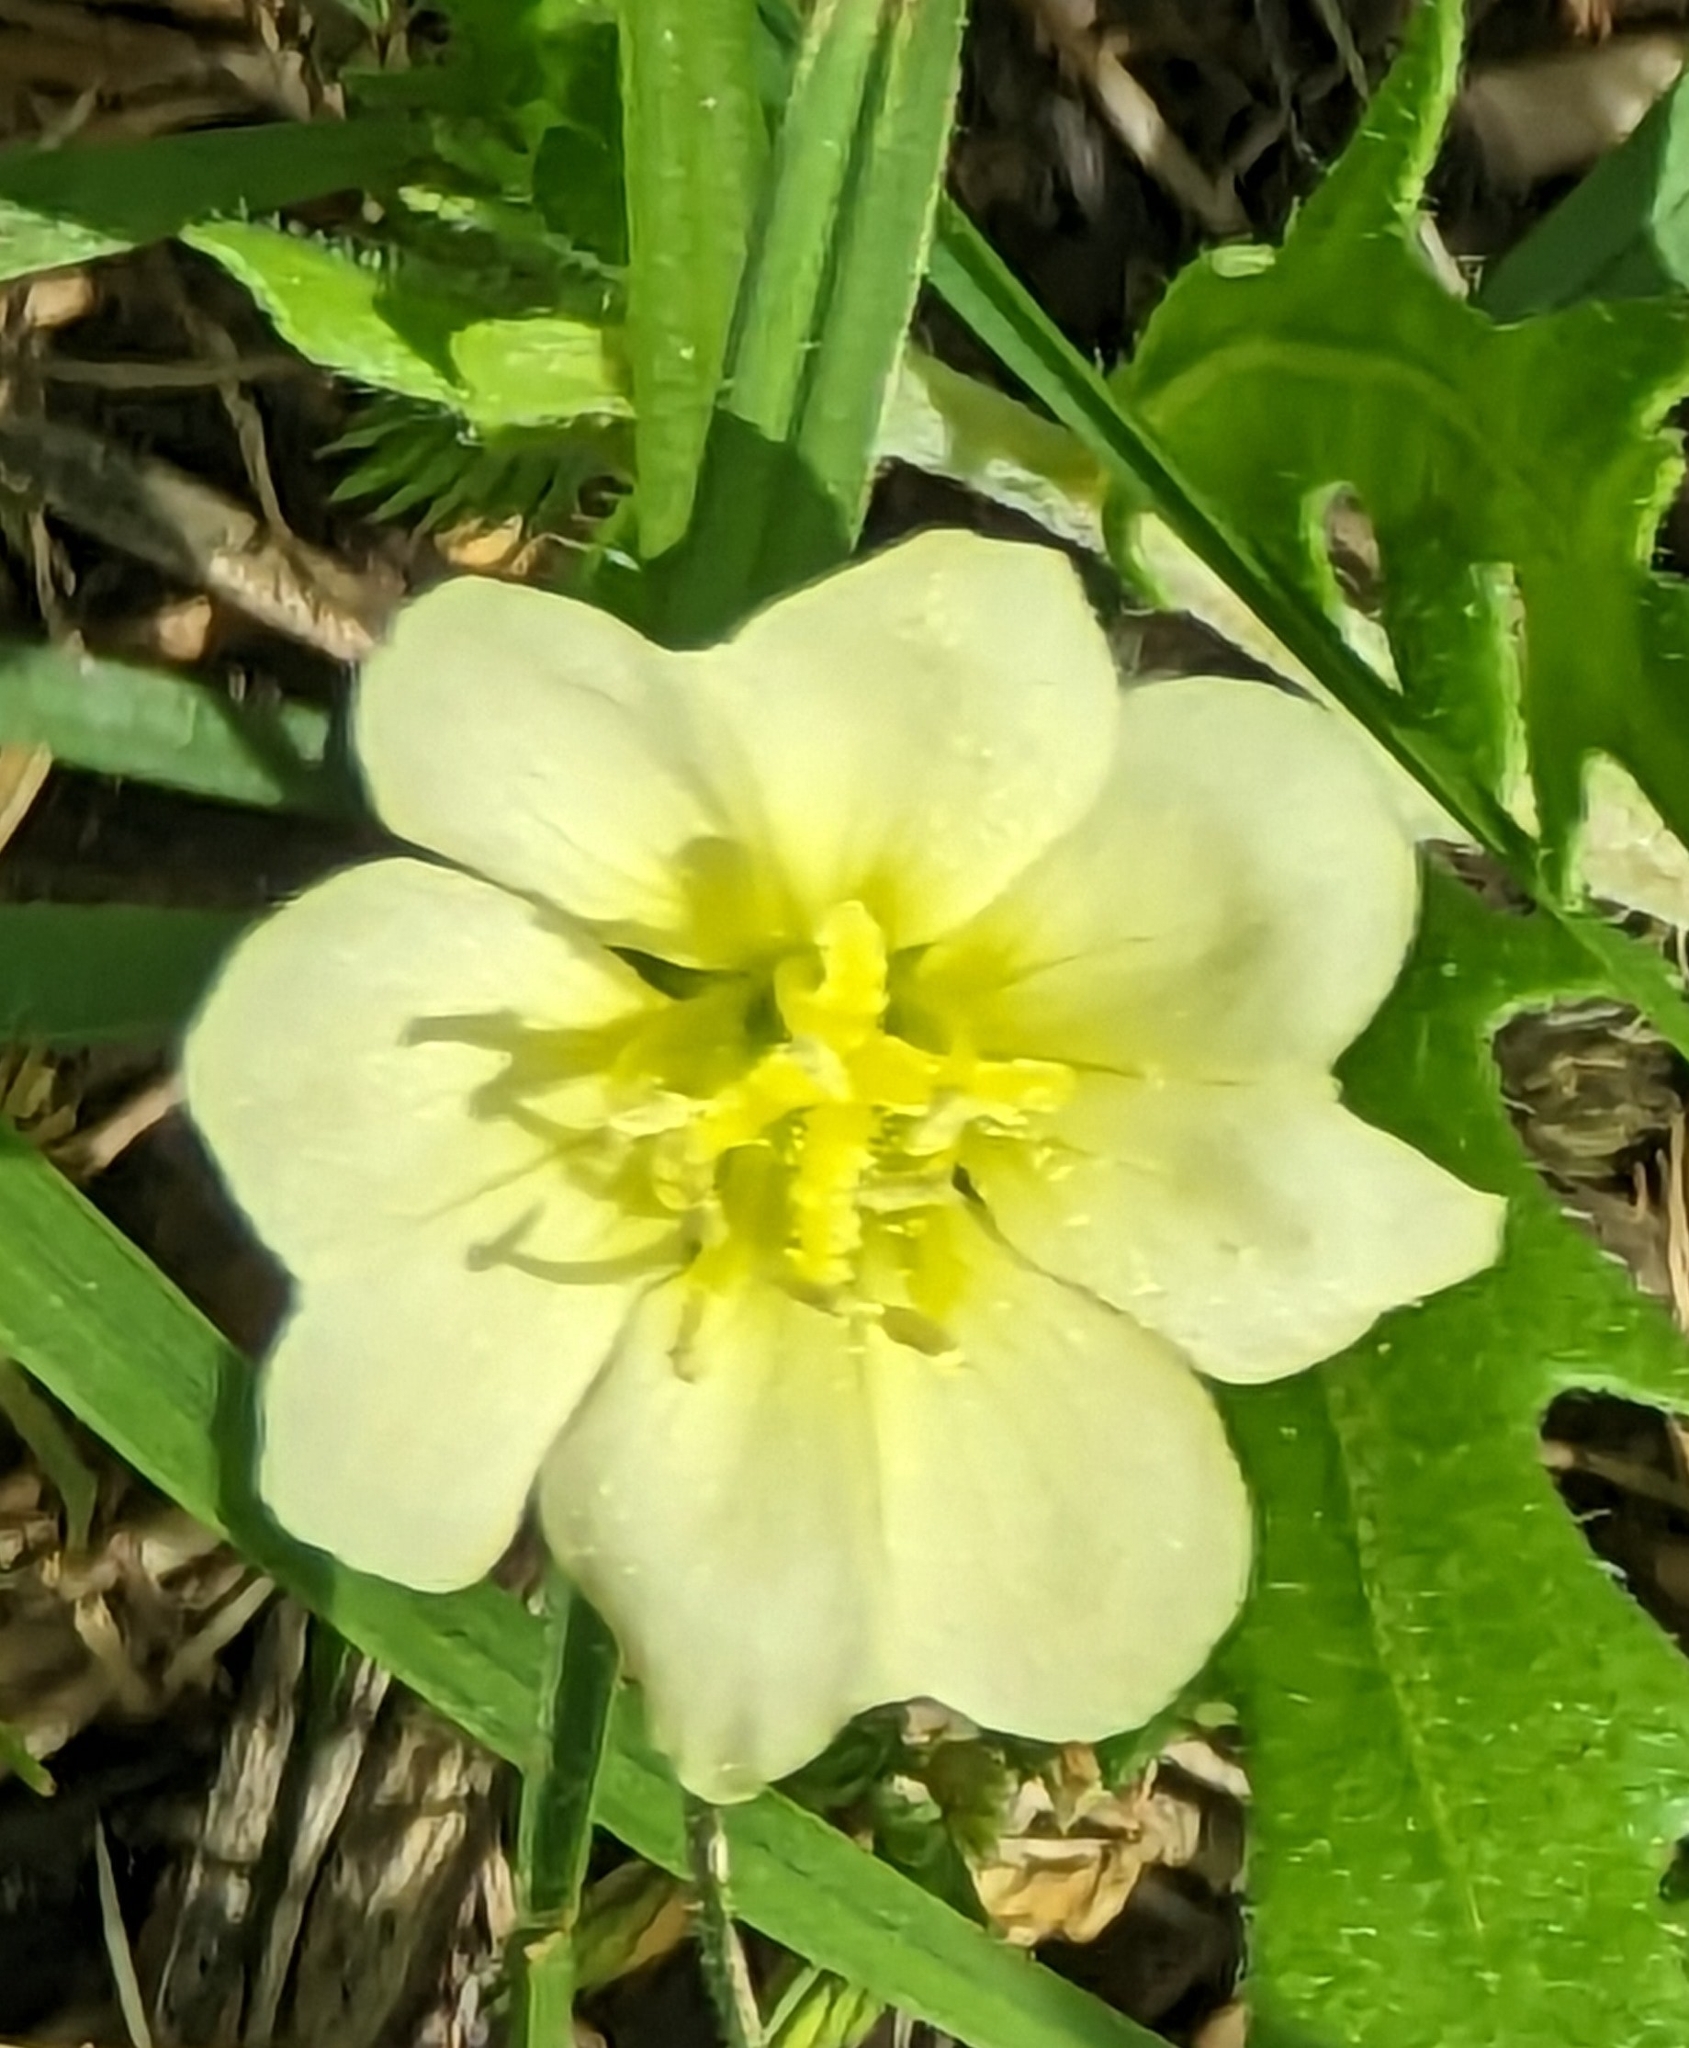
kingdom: Plantae
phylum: Tracheophyta
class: Magnoliopsida
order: Myrtales
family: Onagraceae
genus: Oenothera
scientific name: Oenothera laciniata
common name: Cut-leaved evening-primrose
